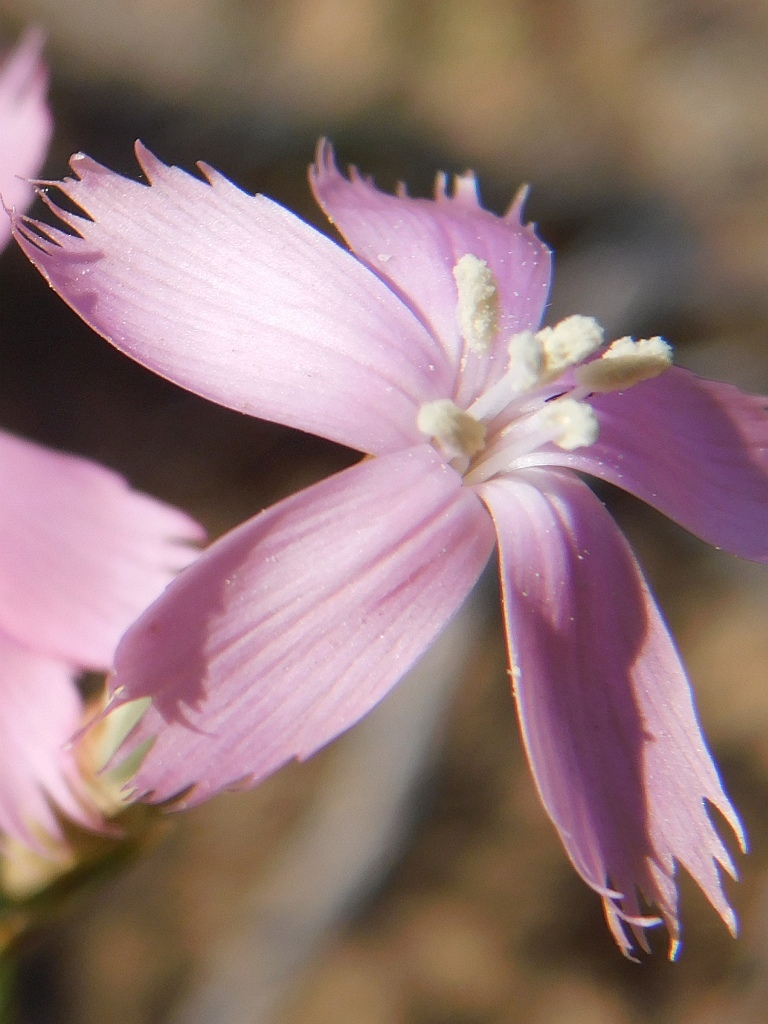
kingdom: Plantae
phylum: Tracheophyta
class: Magnoliopsida
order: Caryophyllales
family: Caryophyllaceae
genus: Dianthus
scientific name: Dianthus thunbergii
